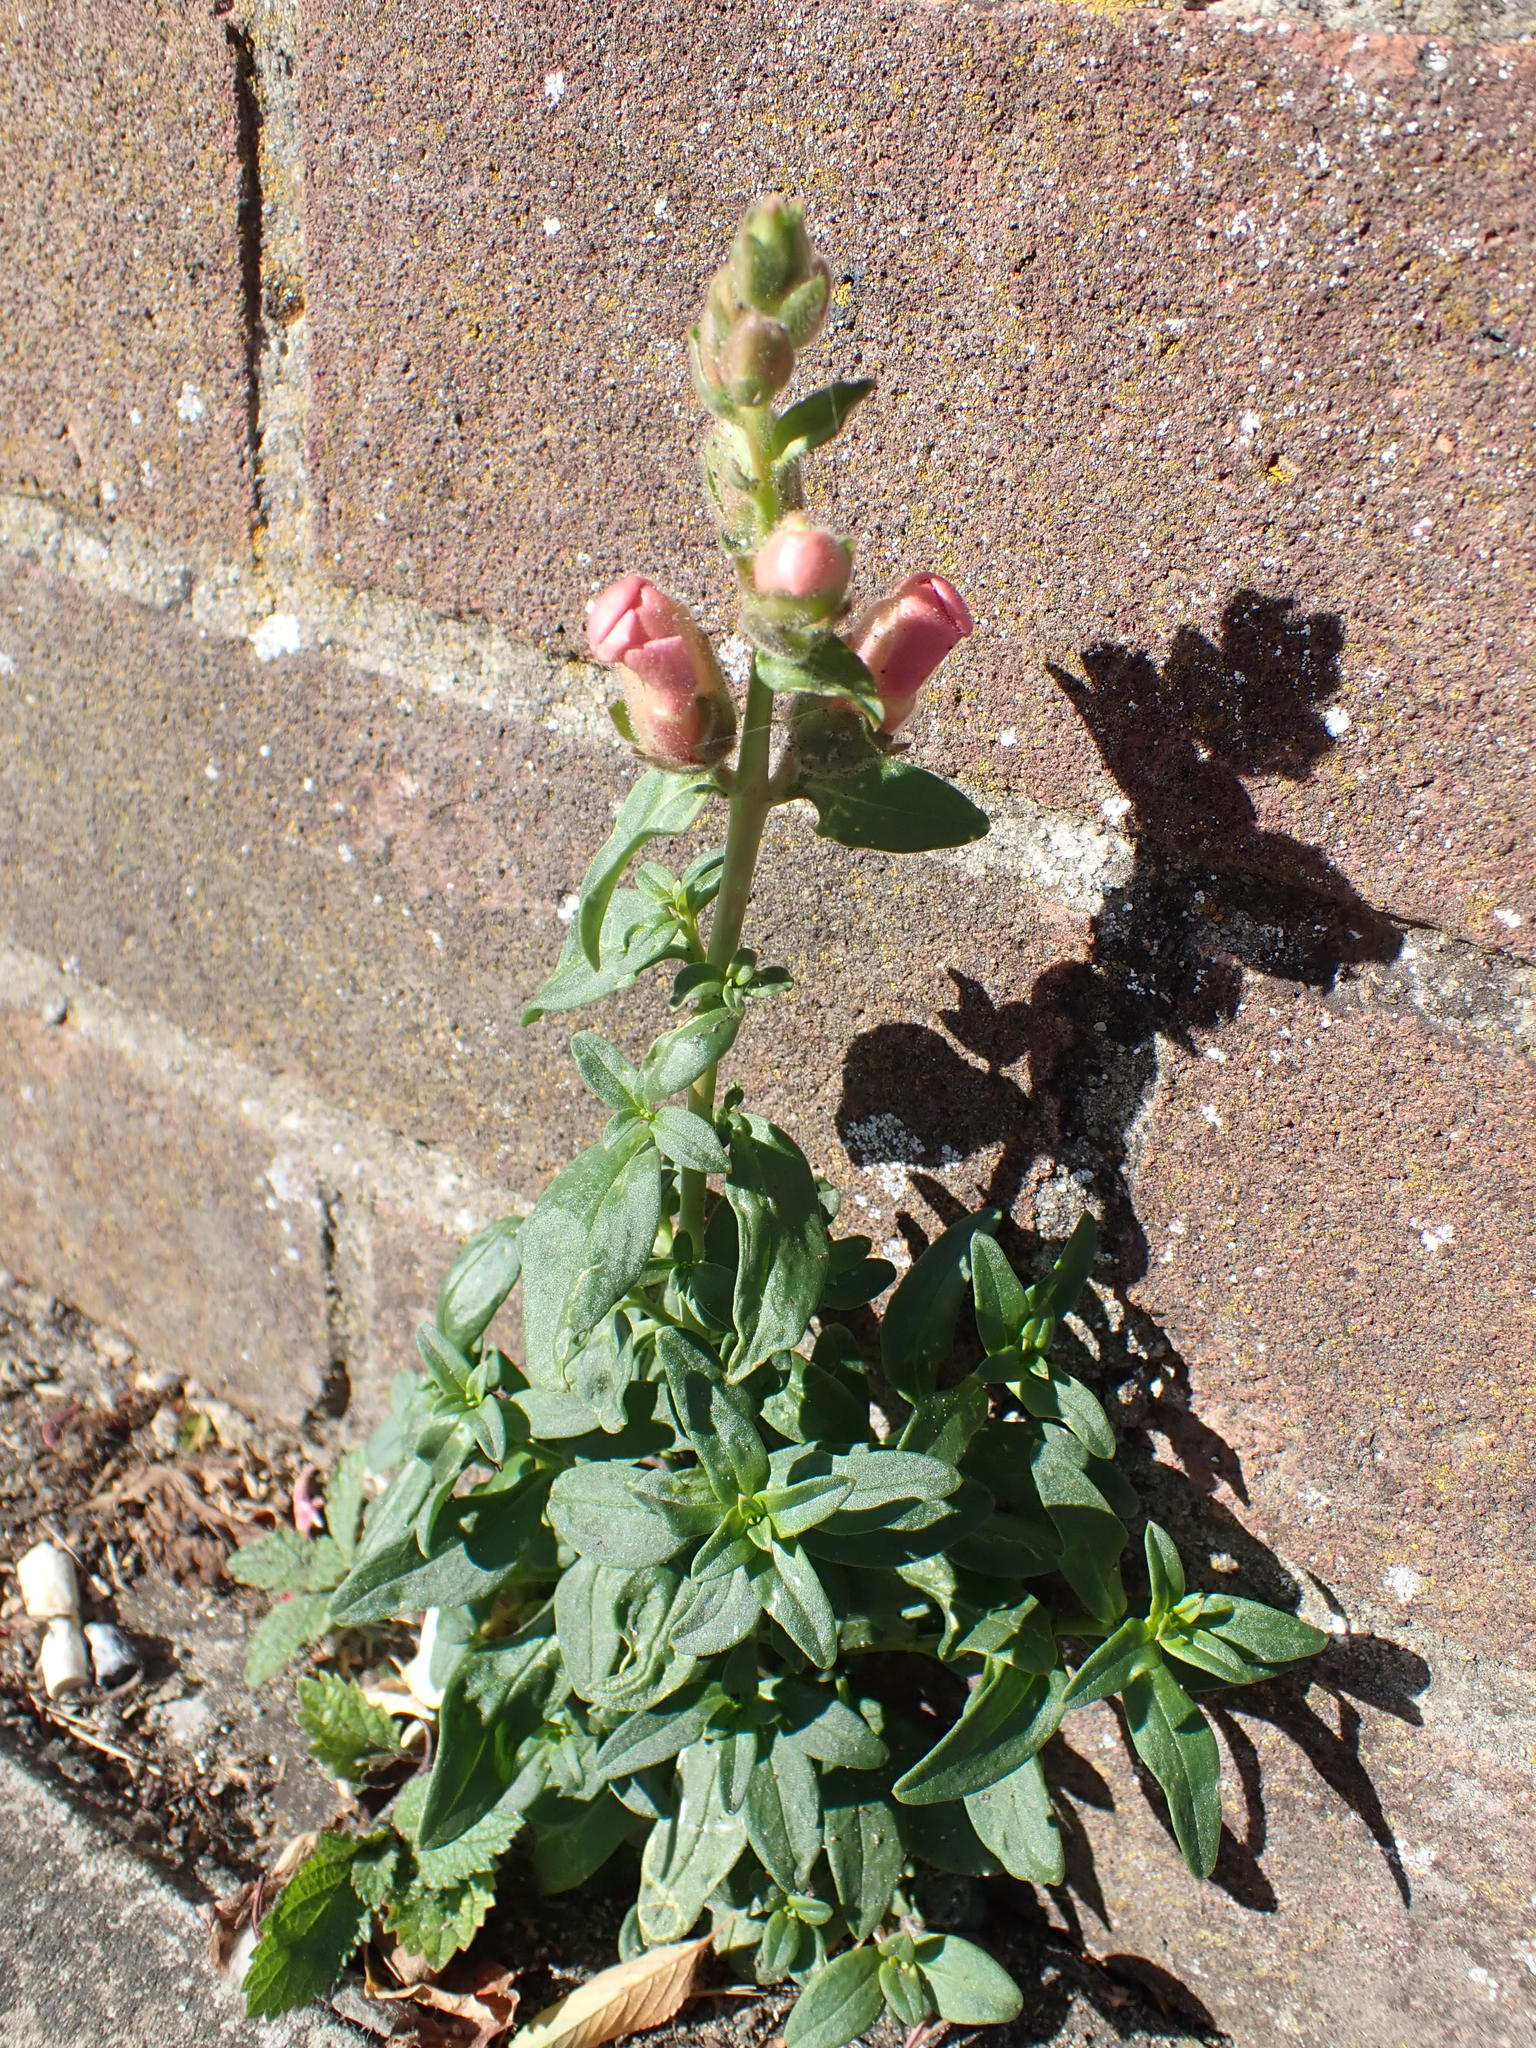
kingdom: Plantae
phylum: Tracheophyta
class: Magnoliopsida
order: Lamiales
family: Plantaginaceae
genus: Antirrhinum
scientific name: Antirrhinum majus
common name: Snapdragon
